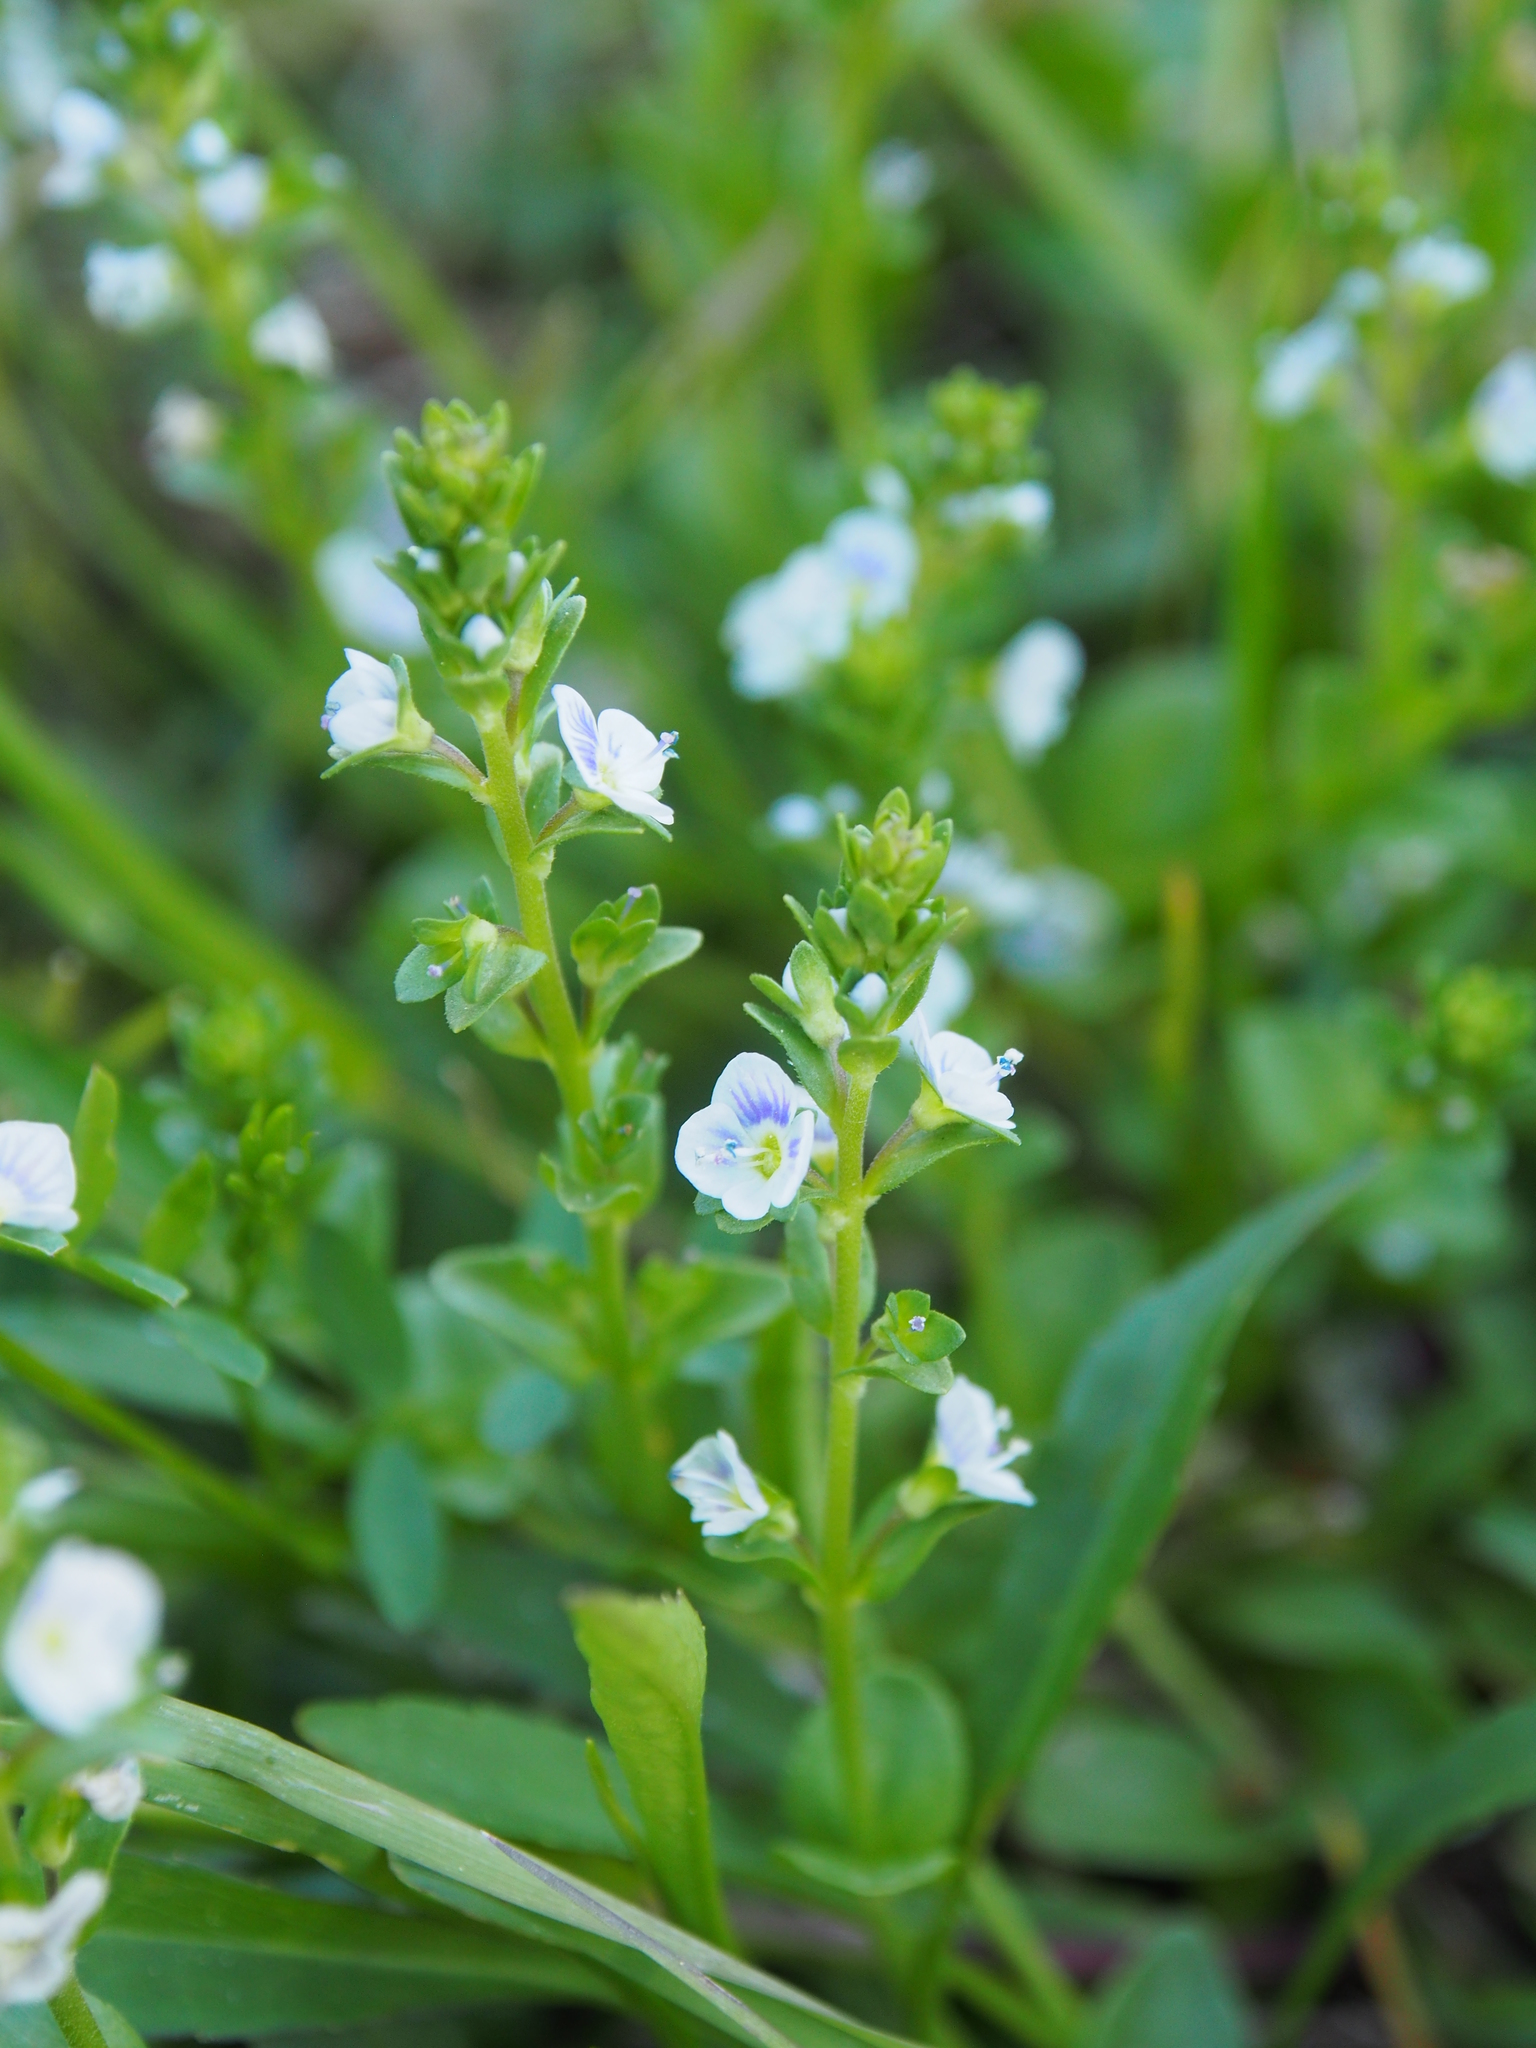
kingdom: Plantae
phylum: Tracheophyta
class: Magnoliopsida
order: Lamiales
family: Plantaginaceae
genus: Veronica
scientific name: Veronica serpyllifolia
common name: Thyme-leaved speedwell
